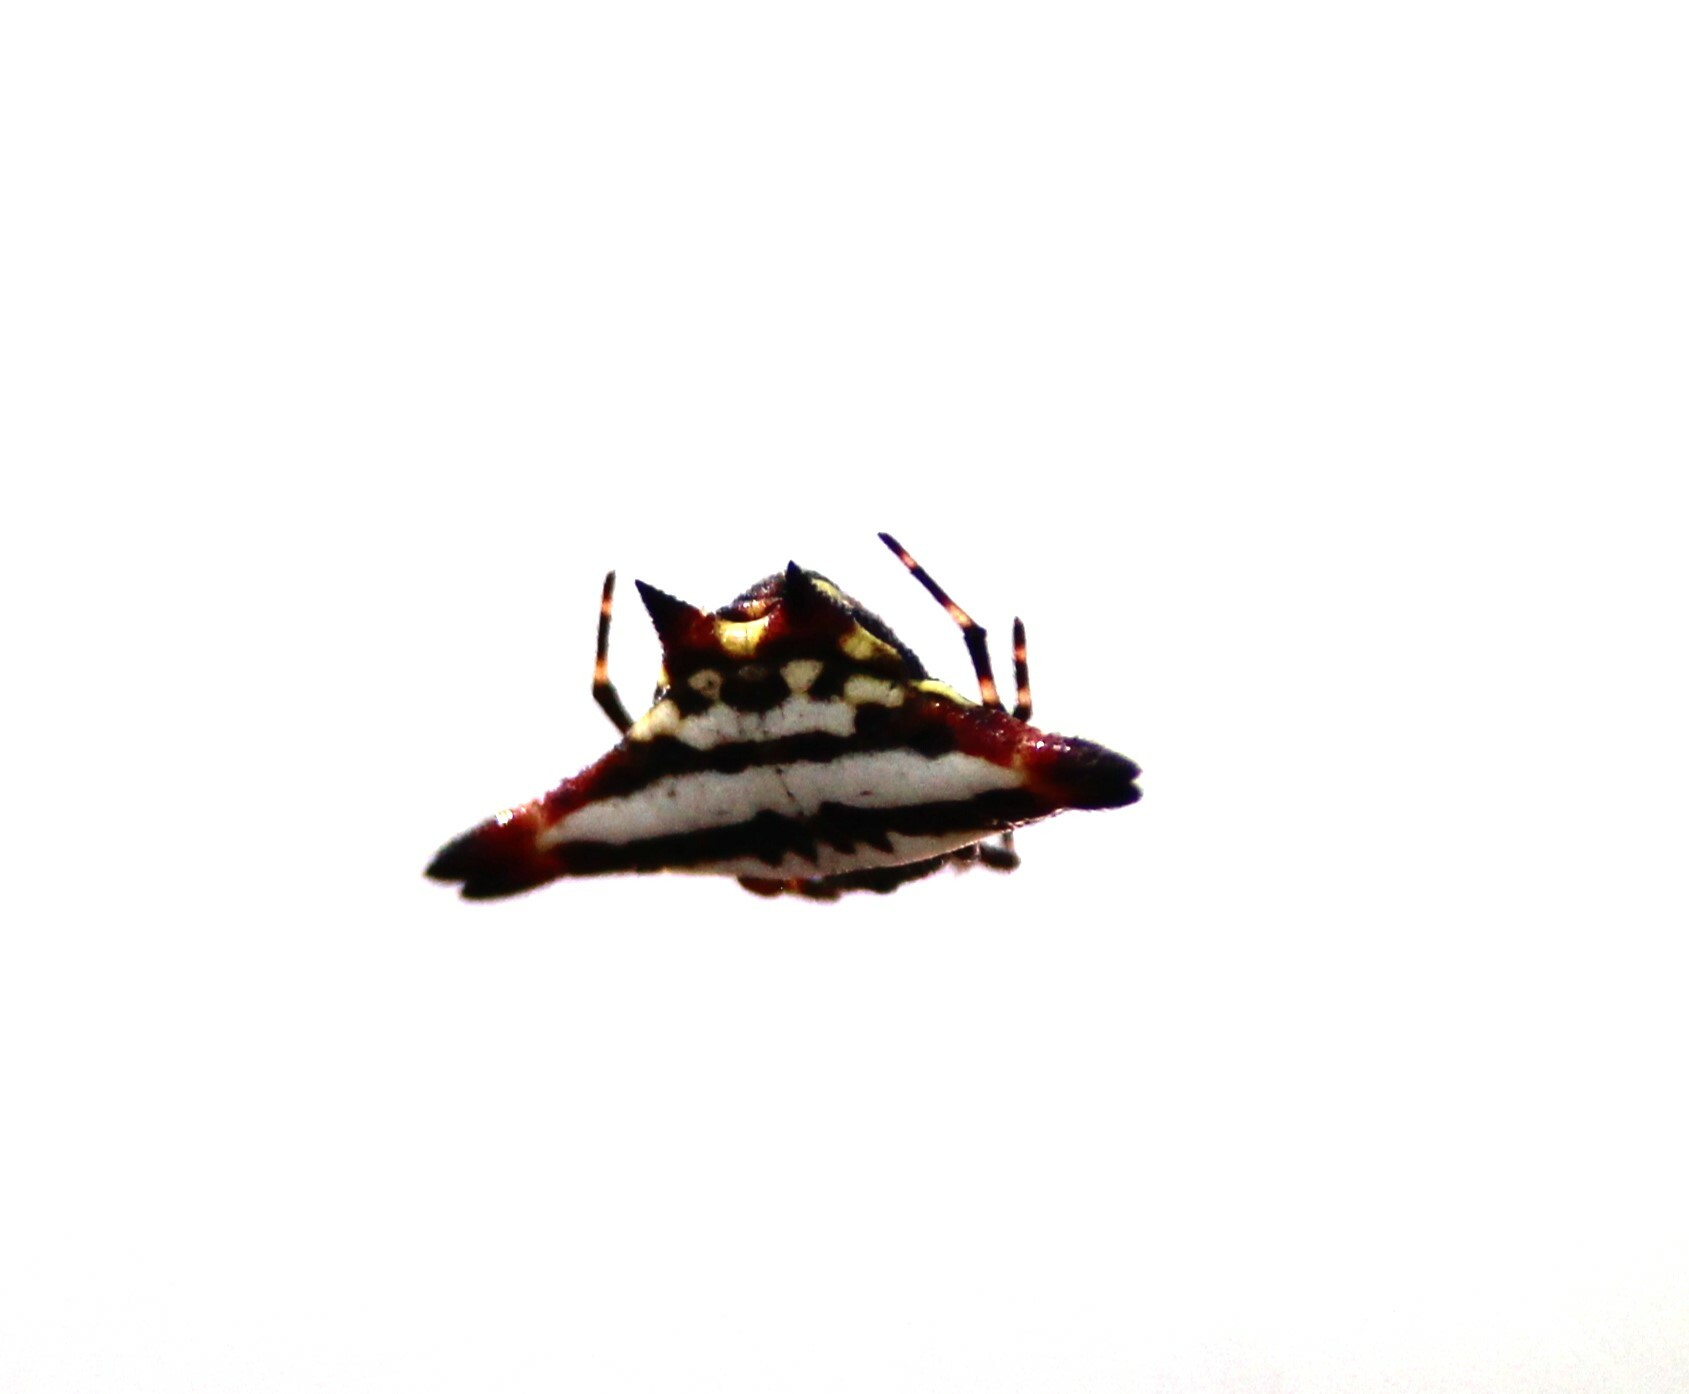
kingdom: Animalia
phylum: Arthropoda
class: Arachnida
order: Araneae
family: Araneidae
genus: Gasteracantha
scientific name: Gasteracantha geminata
